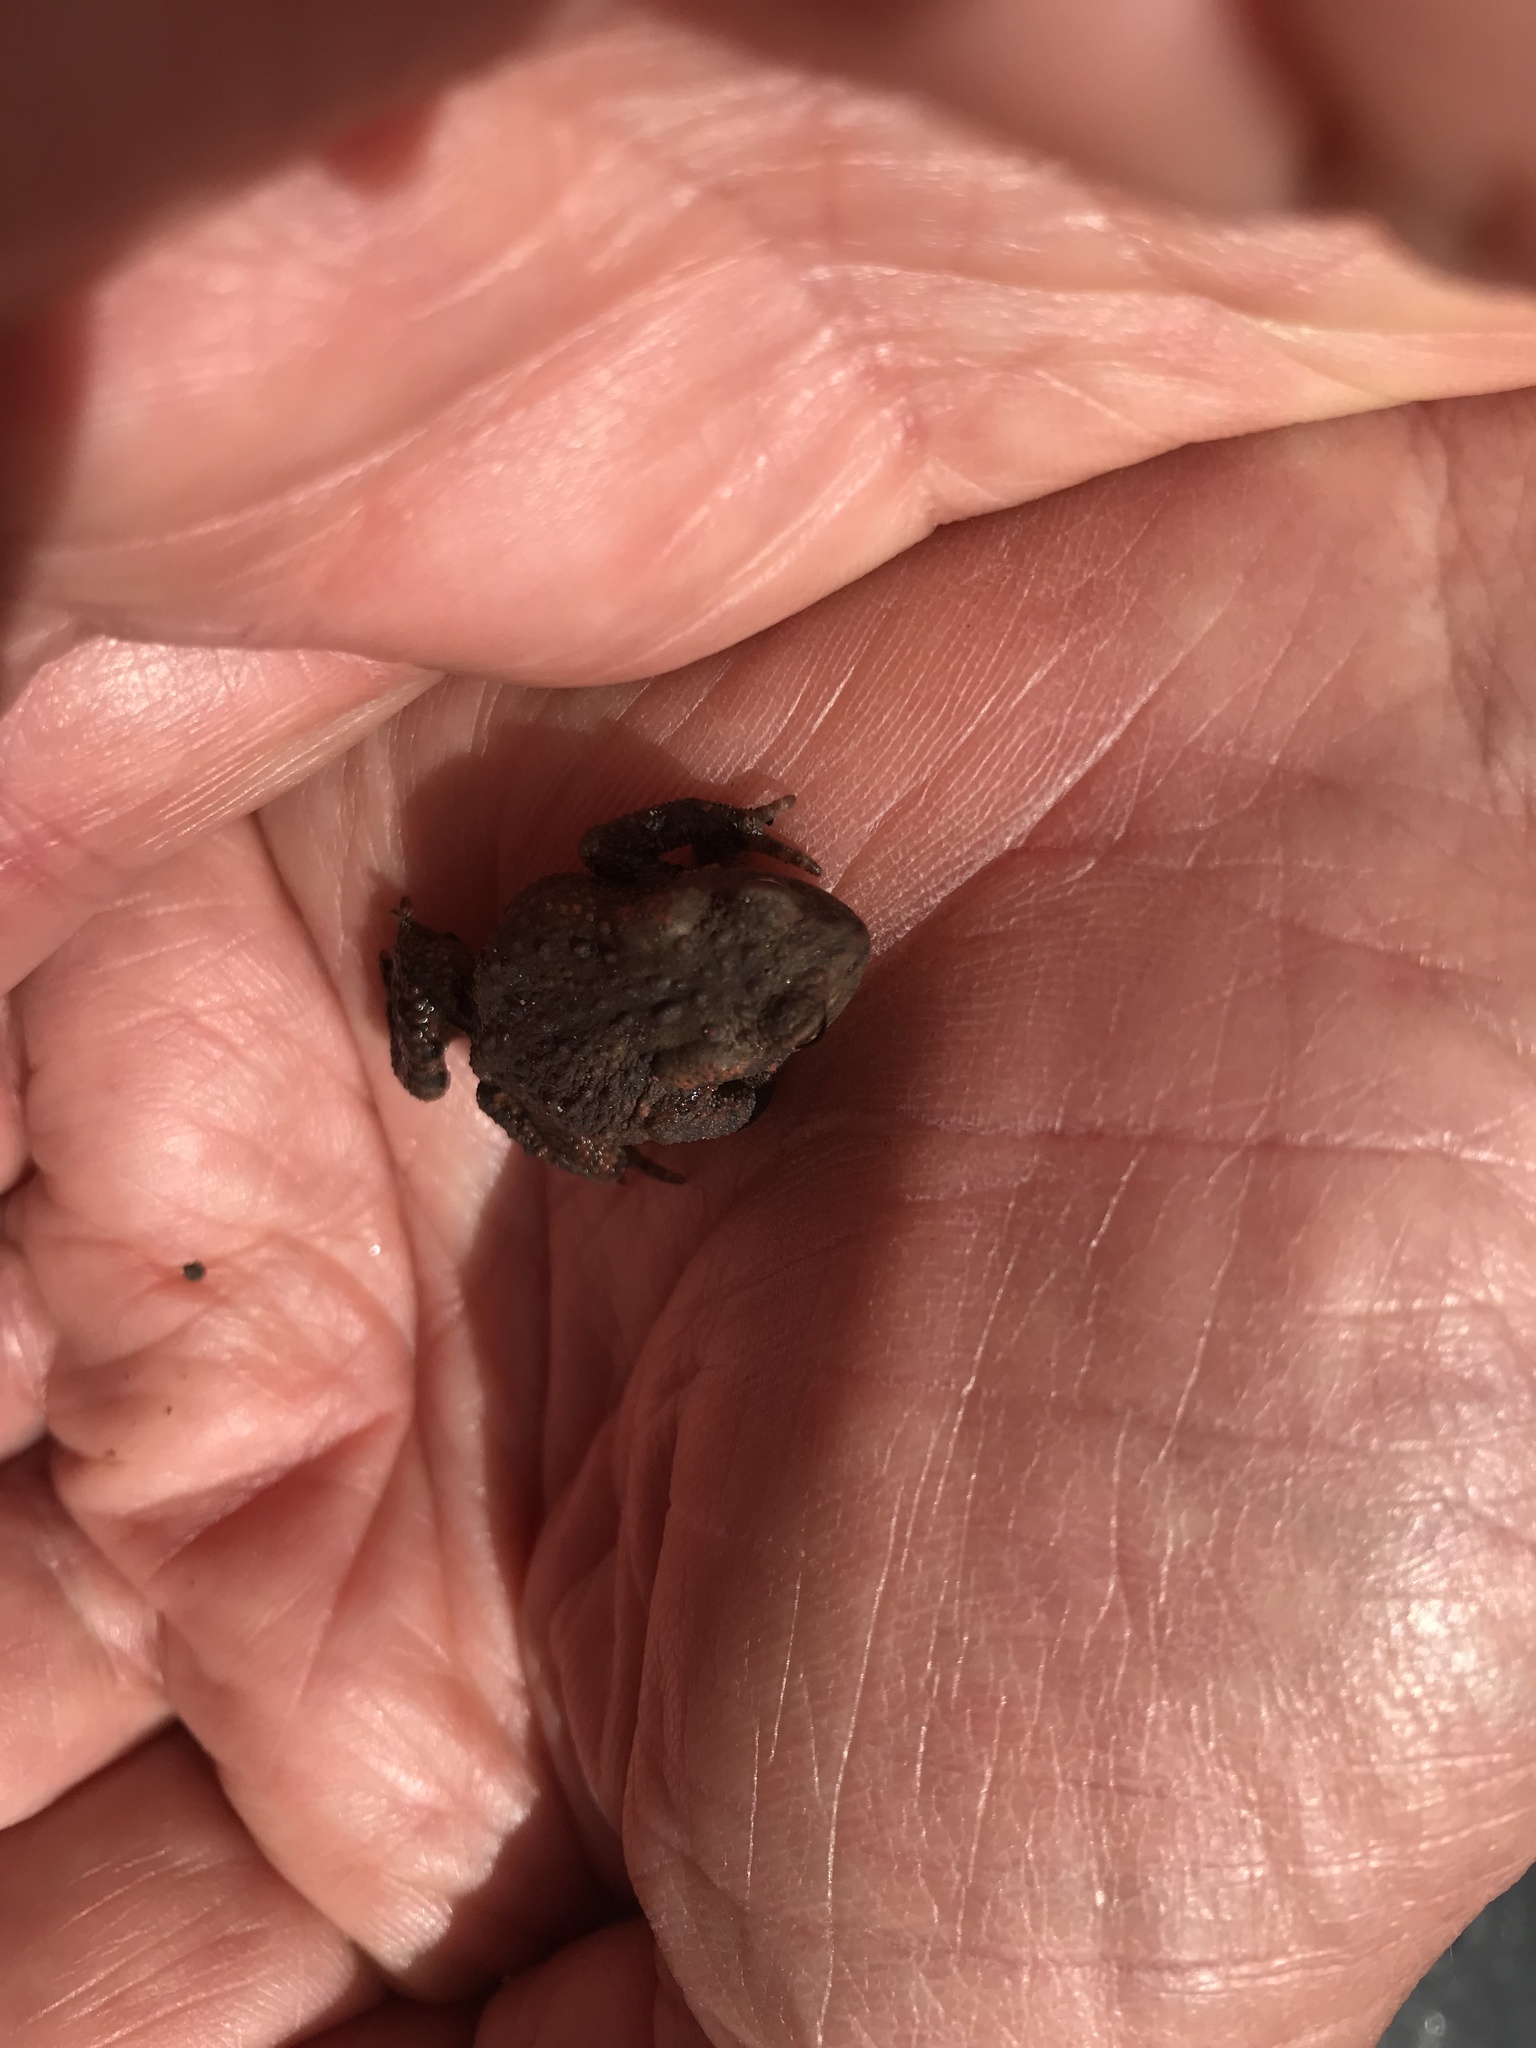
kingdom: Animalia
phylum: Chordata
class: Amphibia
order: Anura
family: Bufonidae
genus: Bufo
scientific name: Bufo bufo
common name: Common toad
